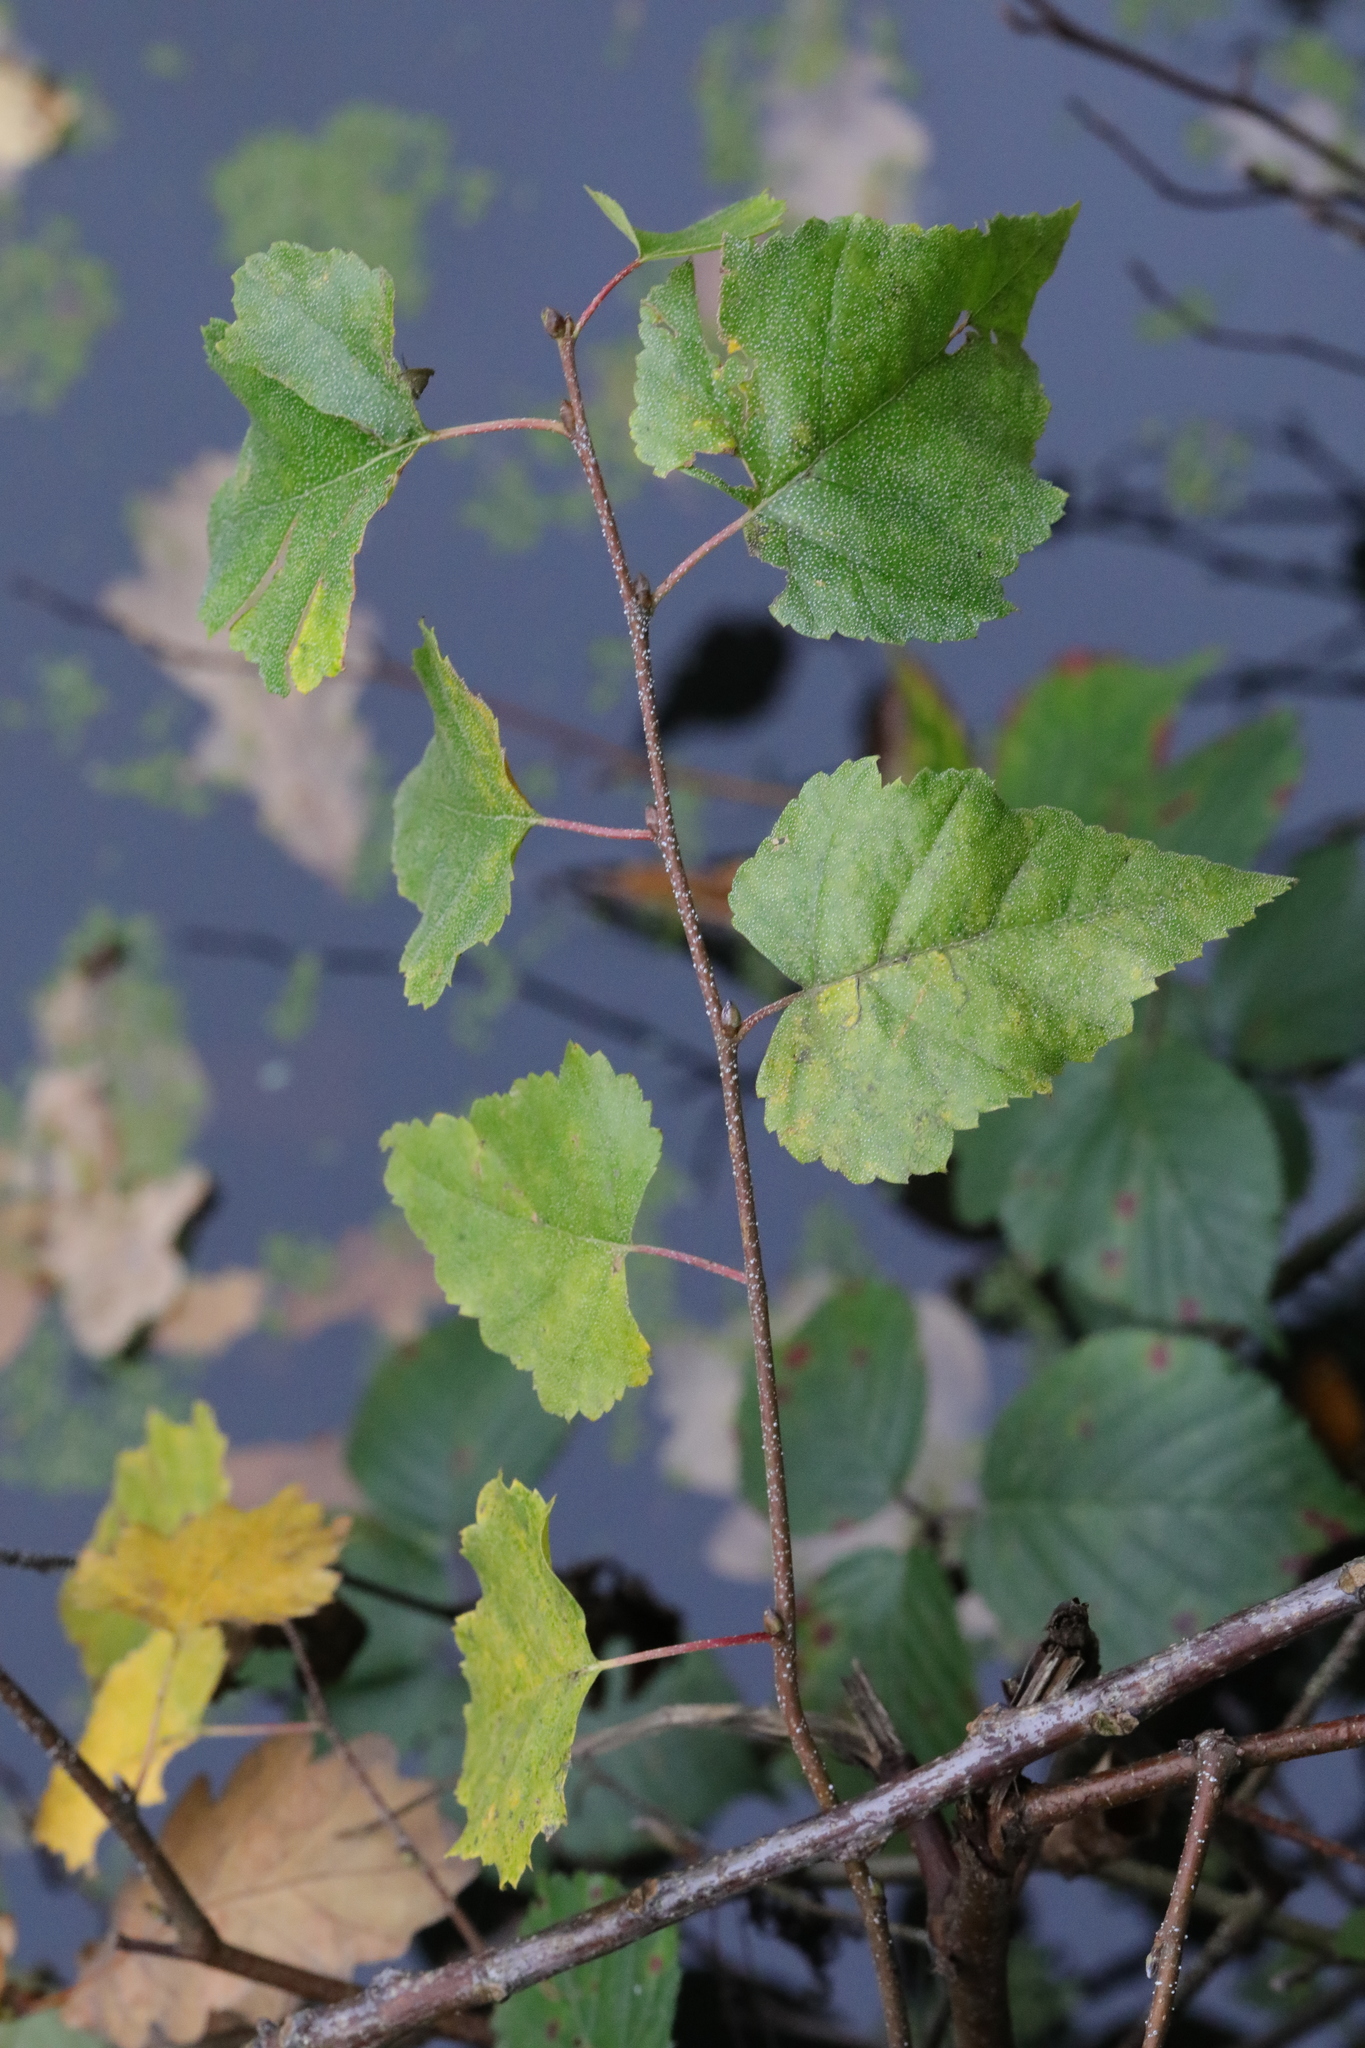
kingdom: Plantae
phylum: Tracheophyta
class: Magnoliopsida
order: Fagales
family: Betulaceae
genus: Betula
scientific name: Betula pendula
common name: Silver birch
